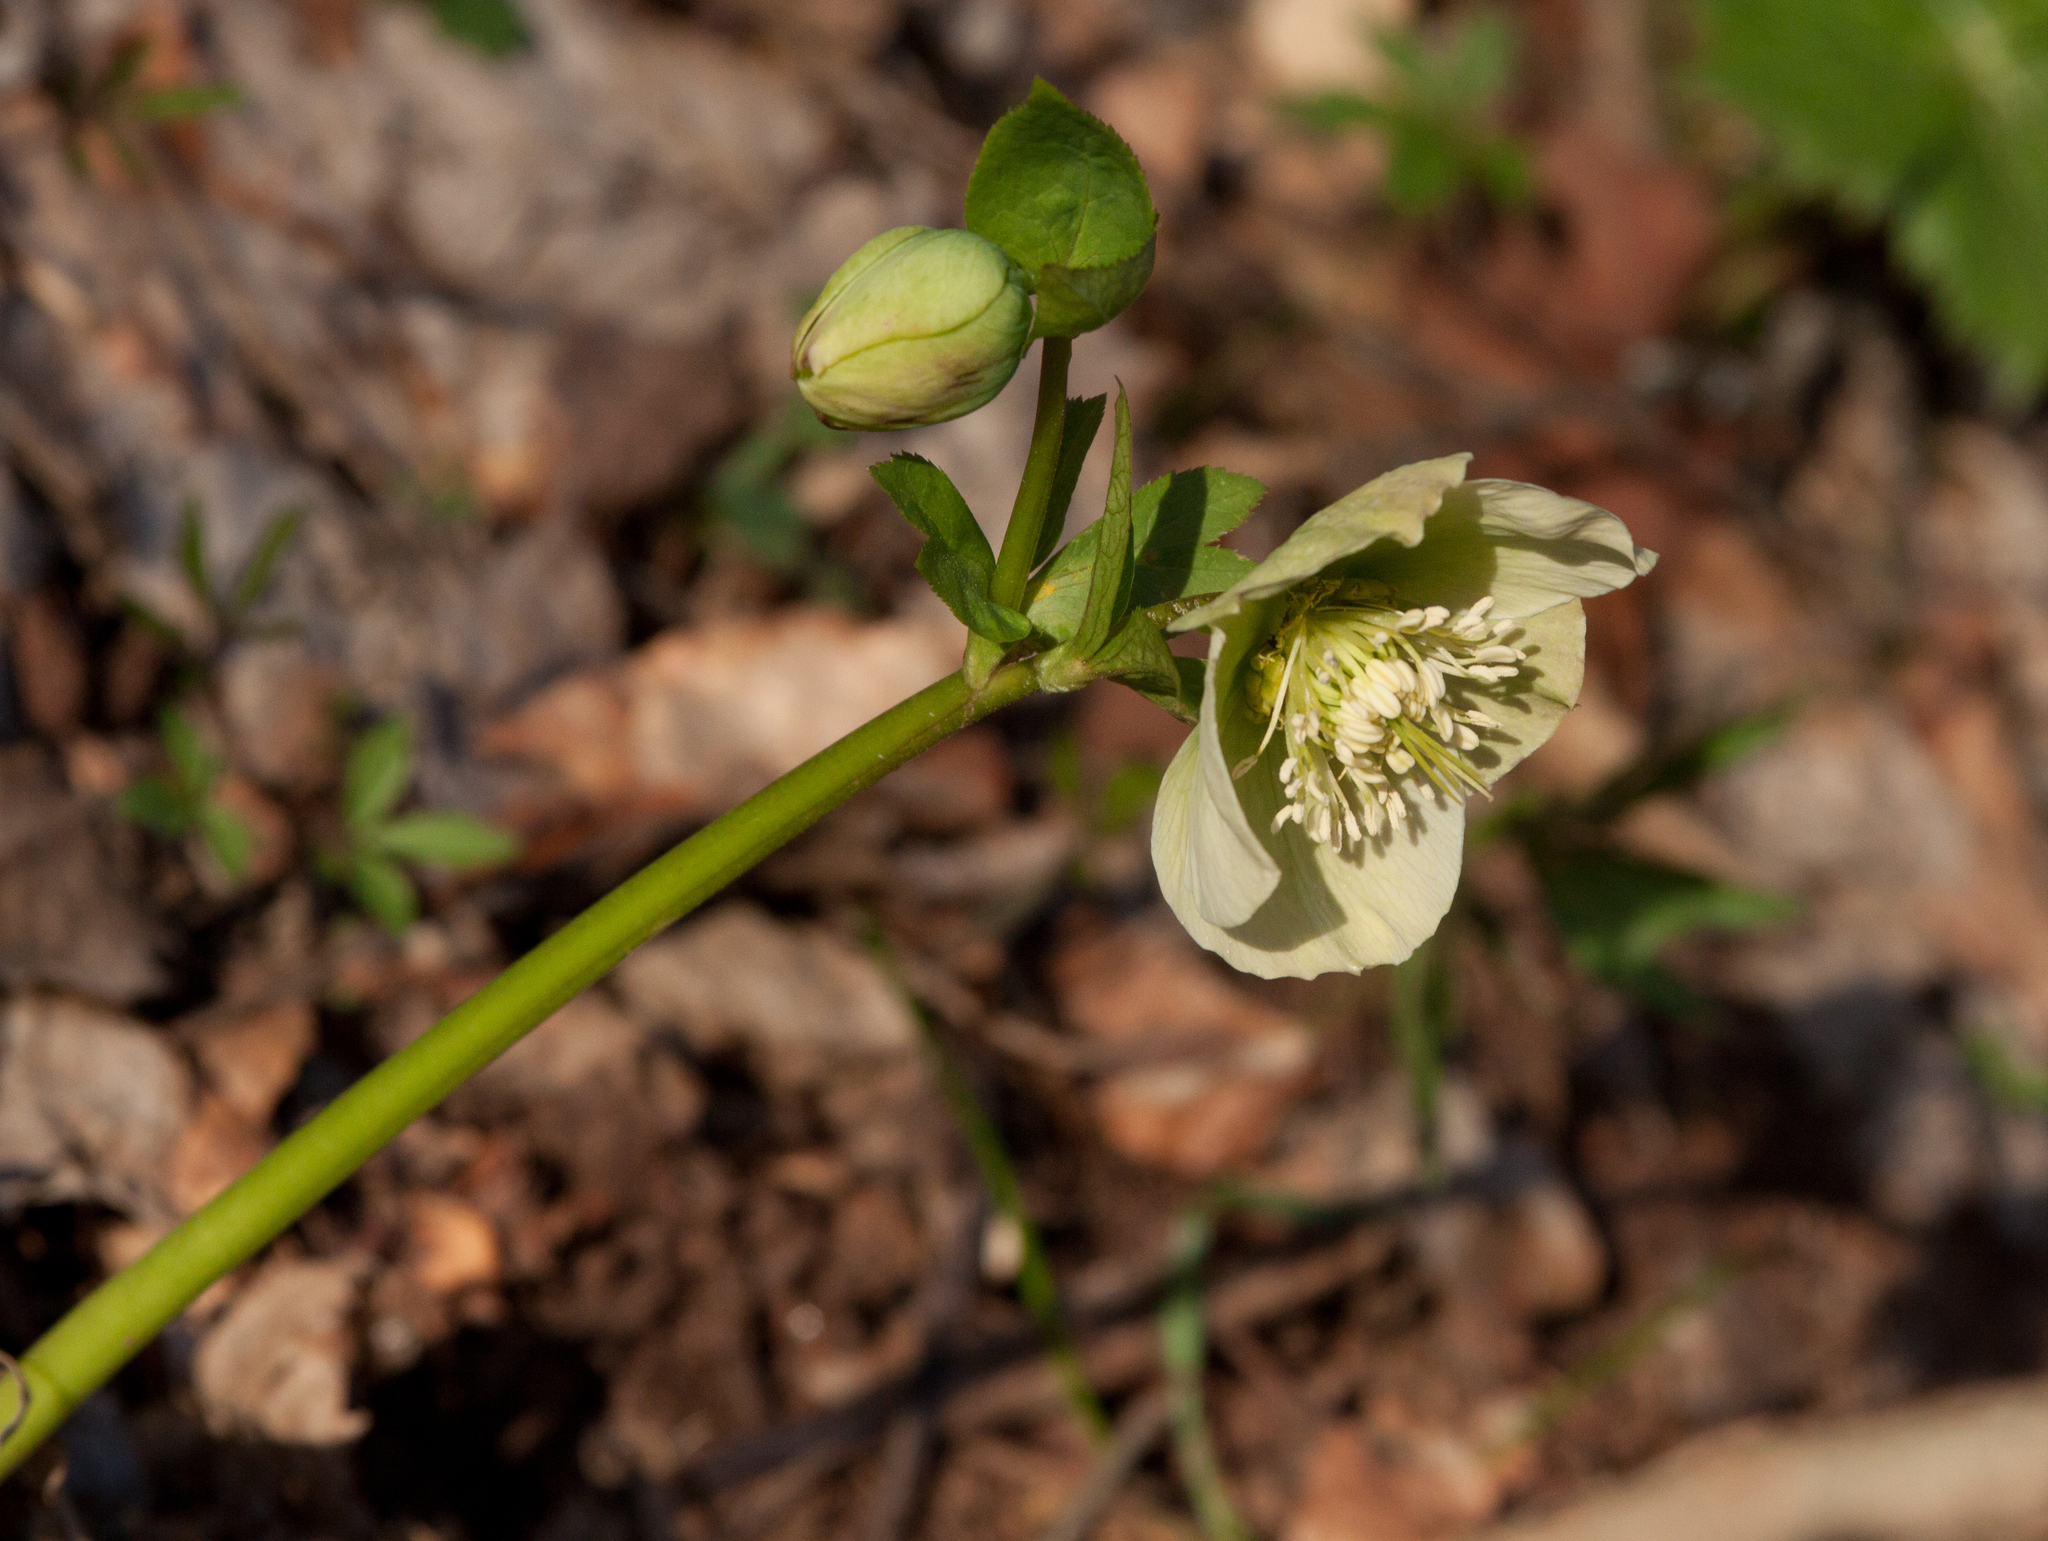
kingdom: Plantae
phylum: Tracheophyta
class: Magnoliopsida
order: Ranunculales
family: Ranunculaceae
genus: Helleborus
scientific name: Helleborus orientalis
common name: Lenten-rose
